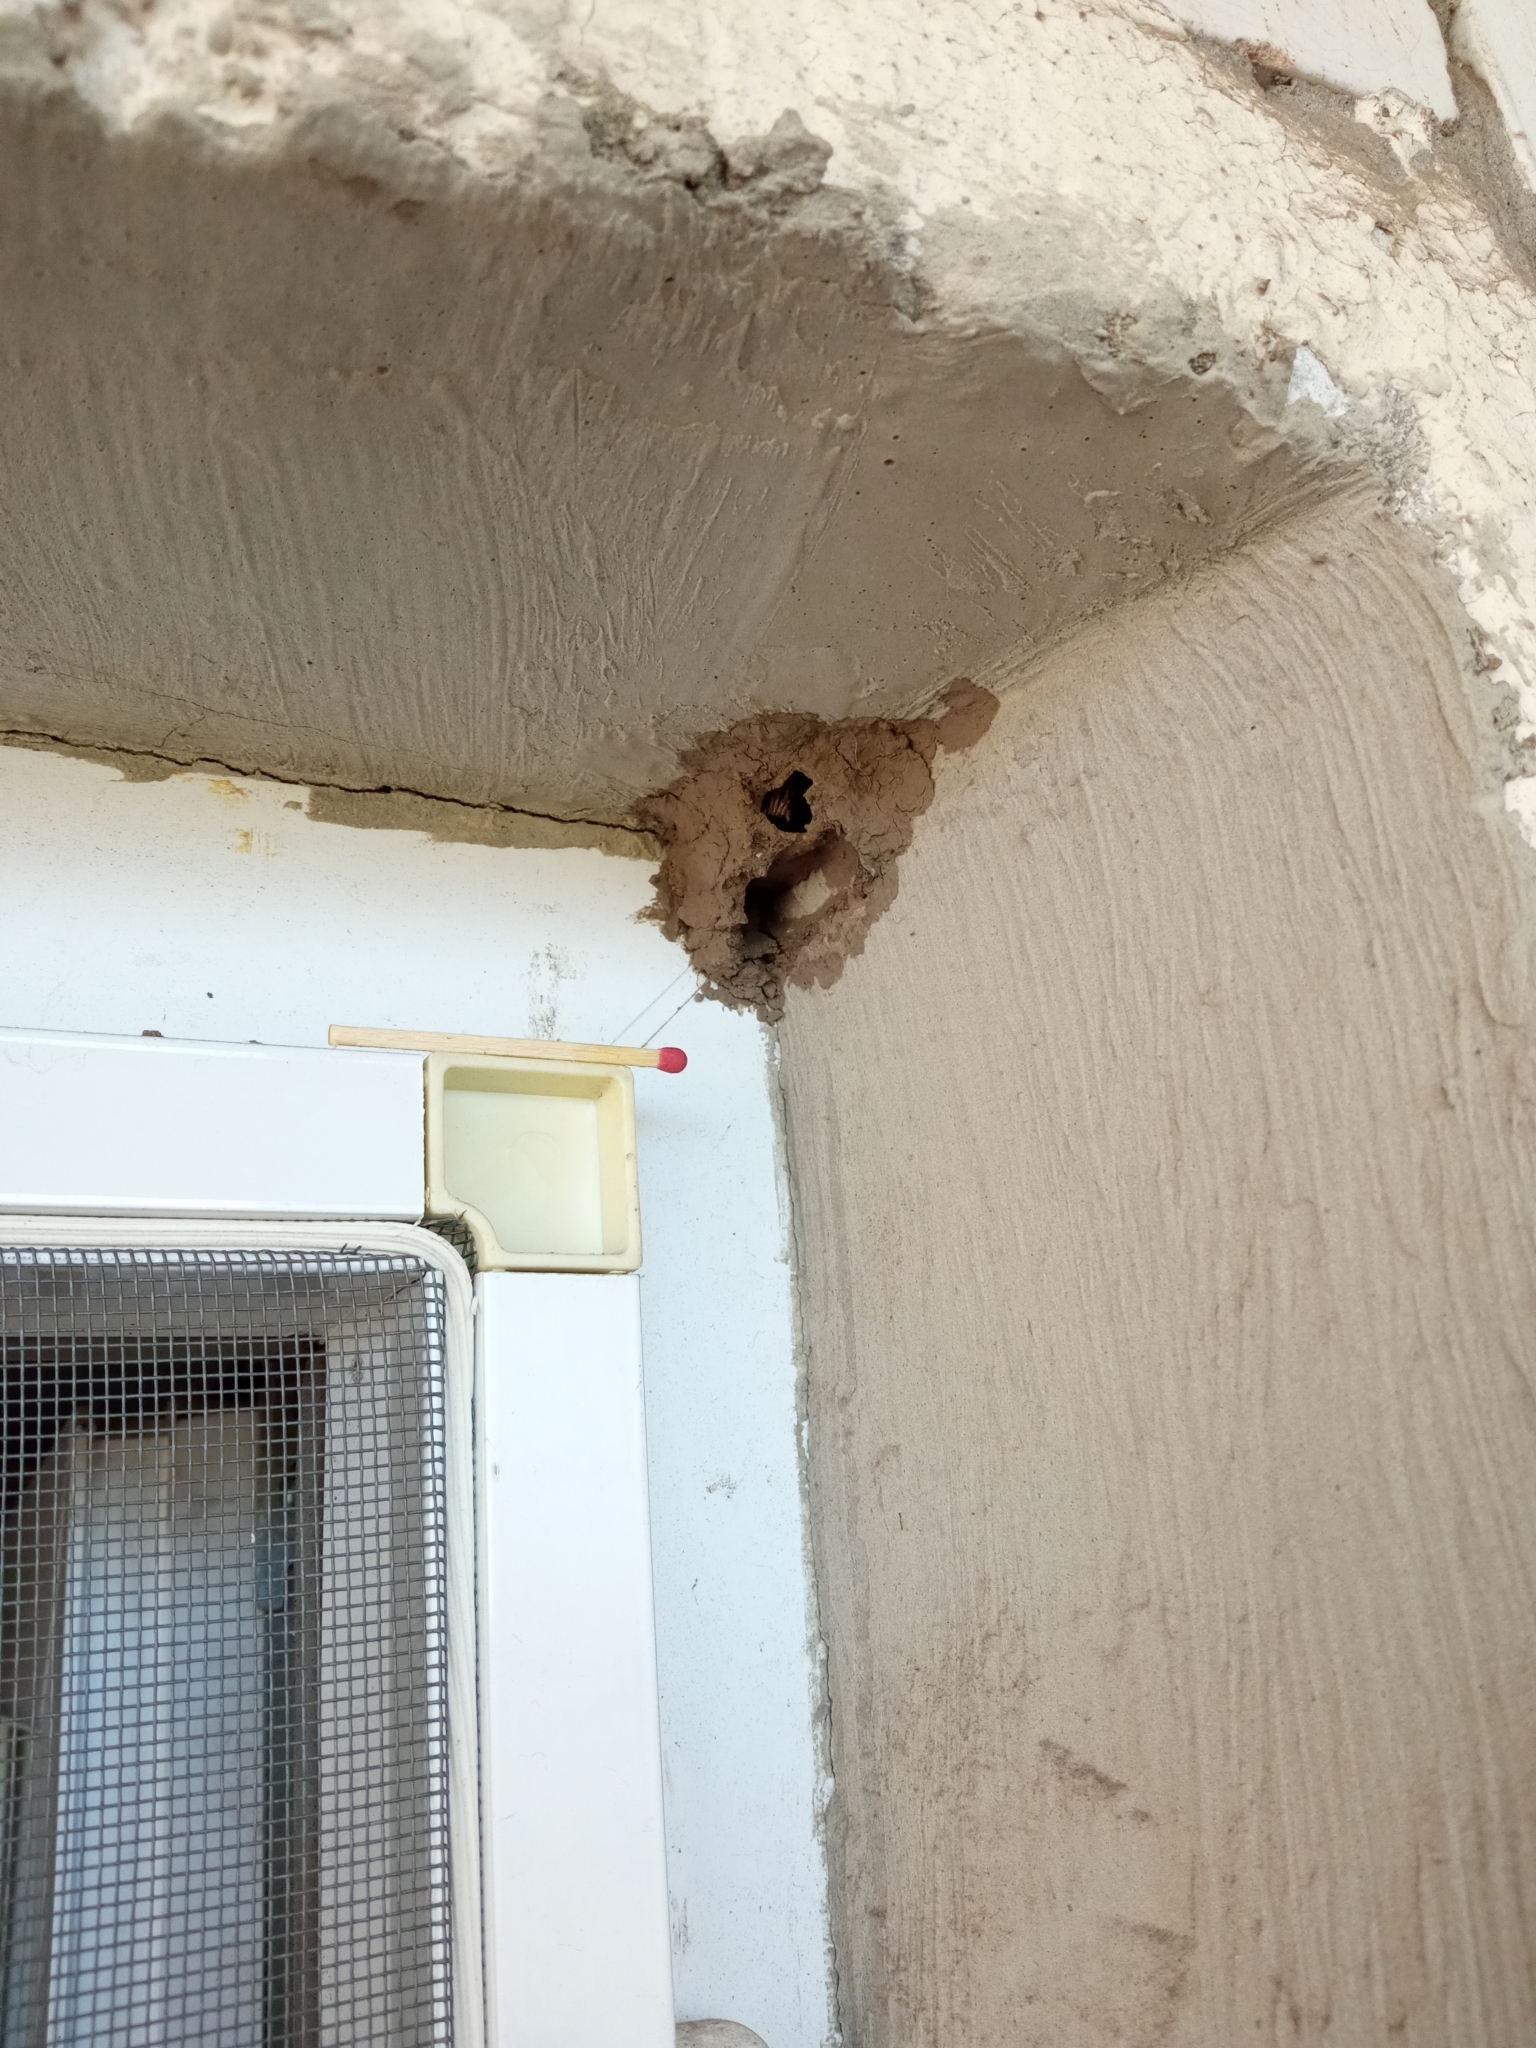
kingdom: Animalia
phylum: Arthropoda
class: Insecta
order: Hymenoptera
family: Sphecidae
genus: Sceliphron
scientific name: Sceliphron
